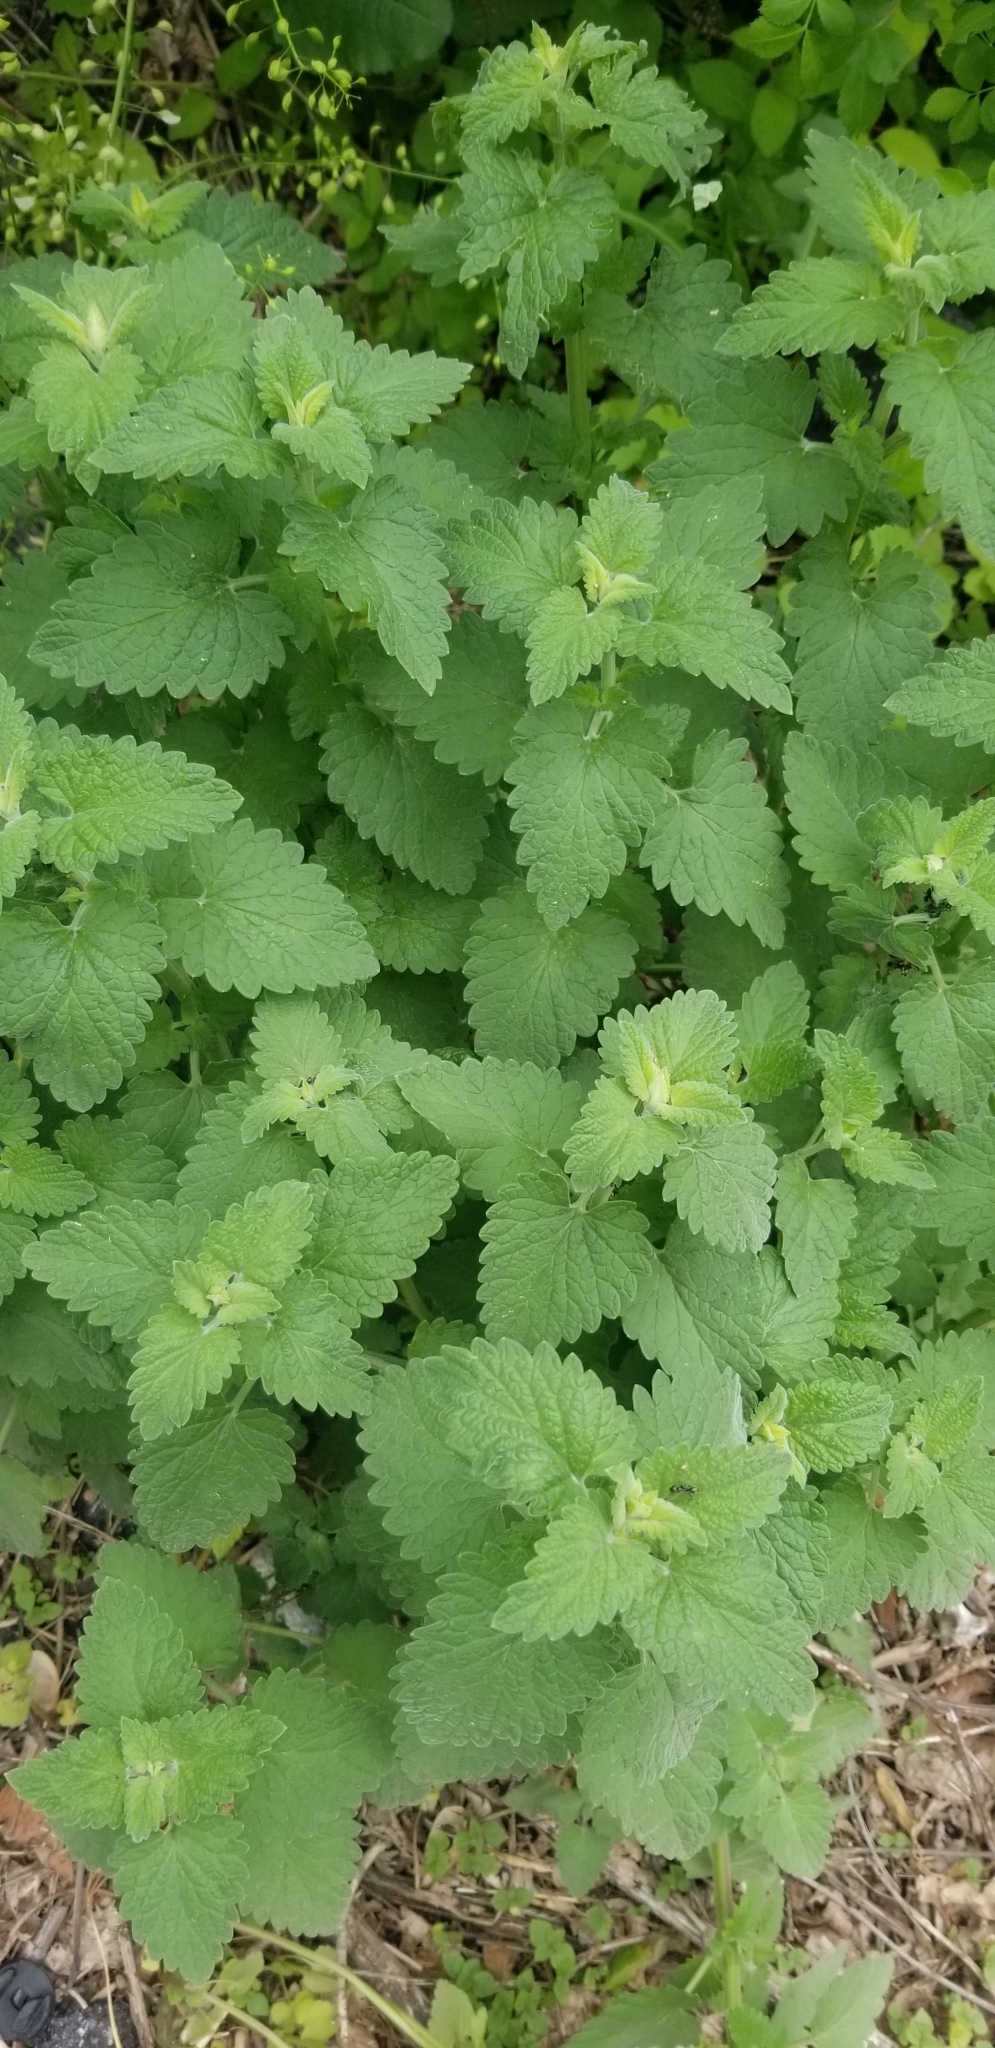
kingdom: Plantae
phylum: Tracheophyta
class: Magnoliopsida
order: Lamiales
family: Lamiaceae
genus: Nepeta
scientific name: Nepeta cataria
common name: Catnip
